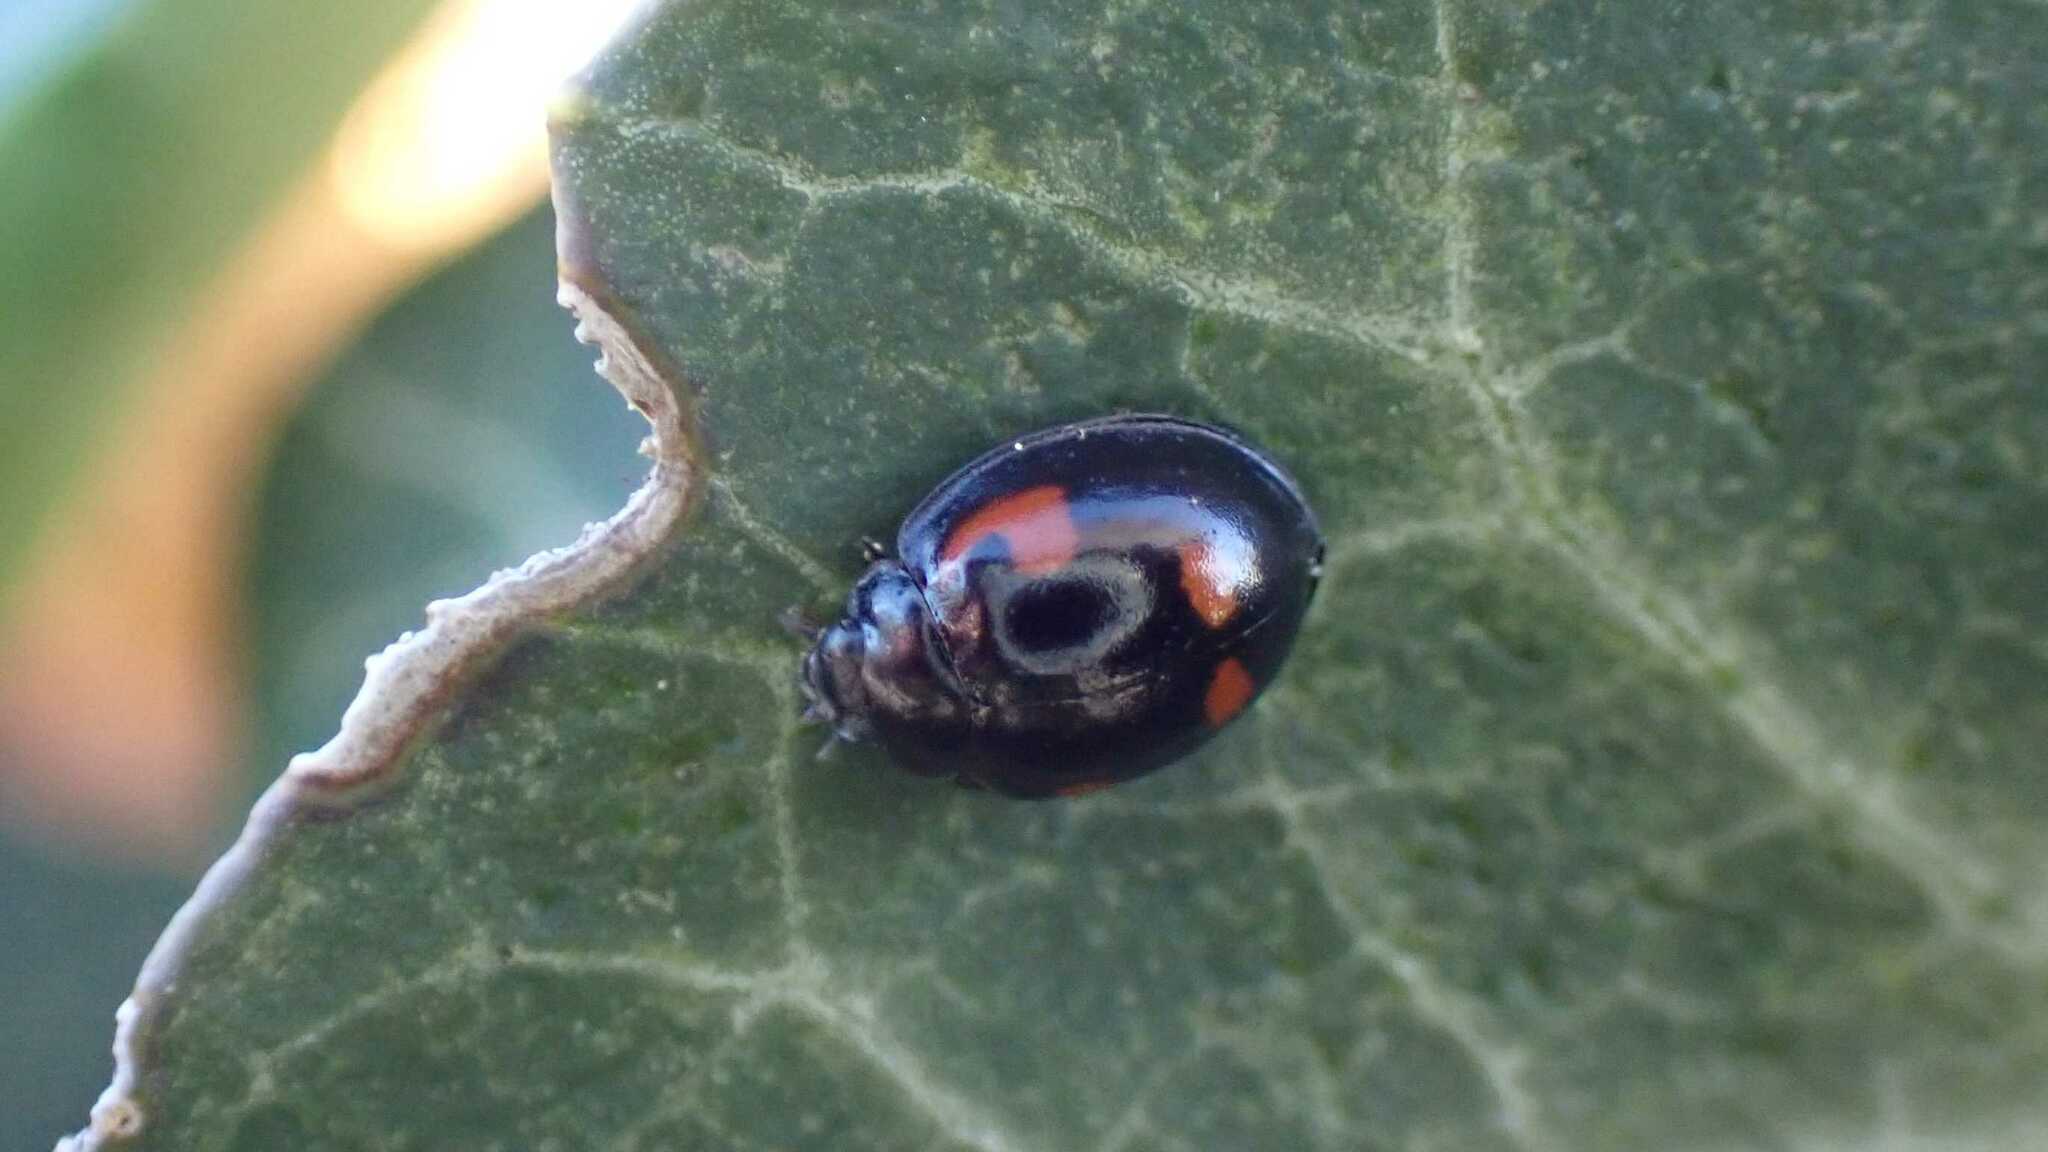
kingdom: Animalia
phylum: Arthropoda
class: Insecta
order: Coleoptera
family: Coccinellidae
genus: Brumus
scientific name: Brumus quadripustulatus
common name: Ladybird beetle
